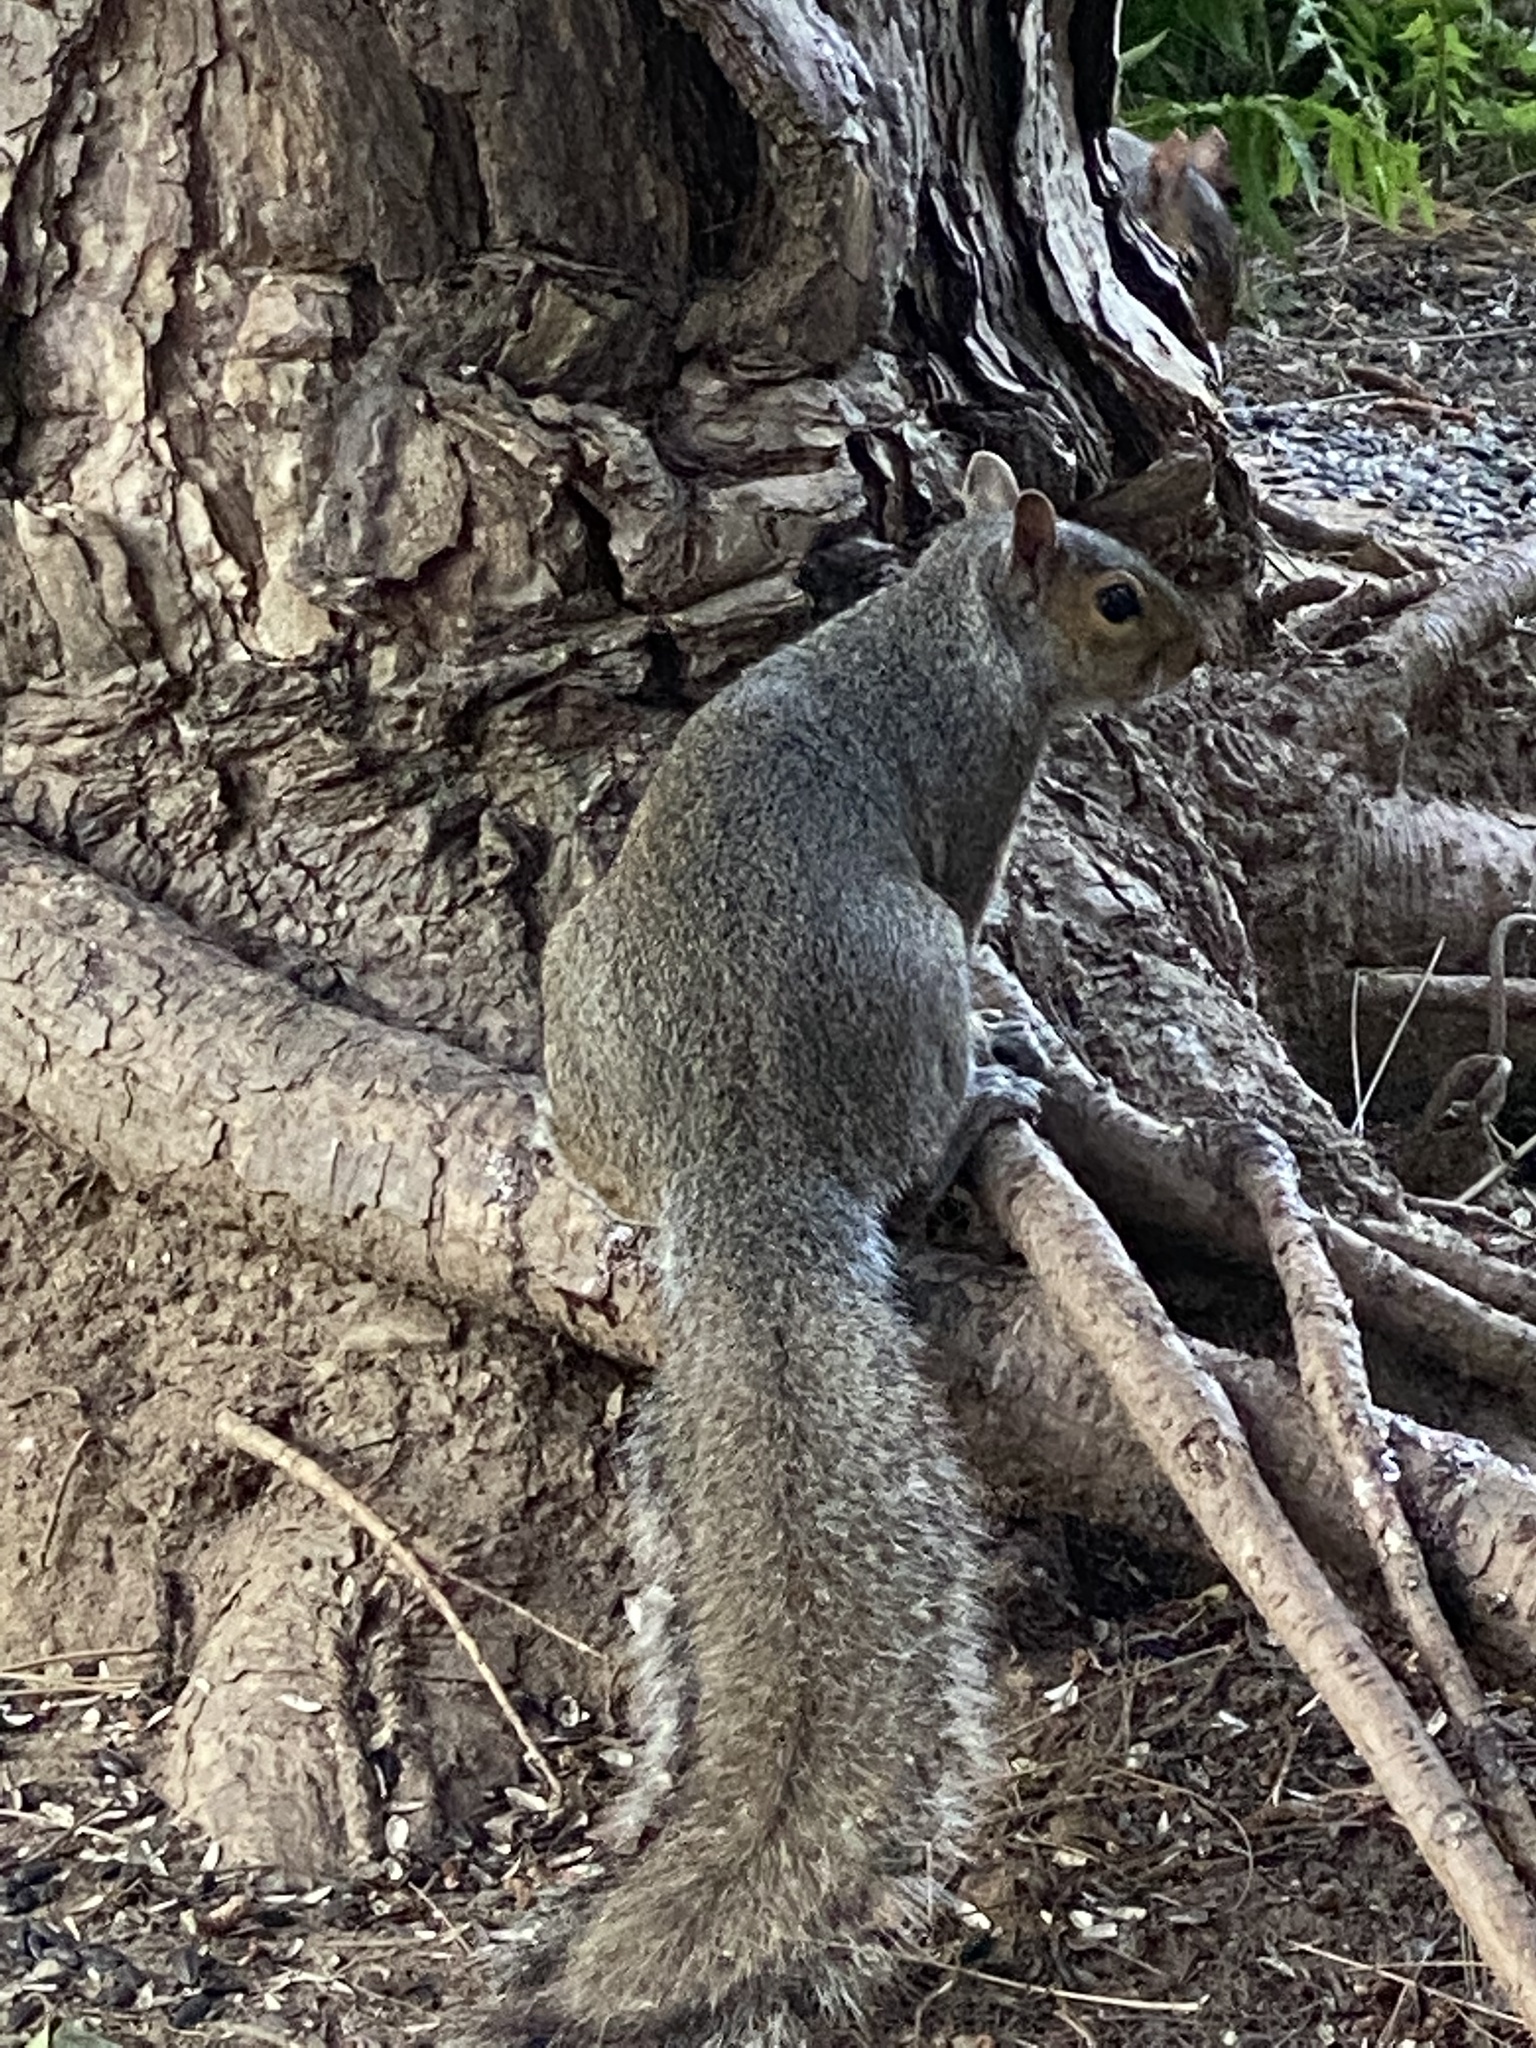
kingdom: Animalia
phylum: Chordata
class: Mammalia
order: Rodentia
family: Sciuridae
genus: Sciurus
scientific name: Sciurus carolinensis
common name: Eastern gray squirrel
